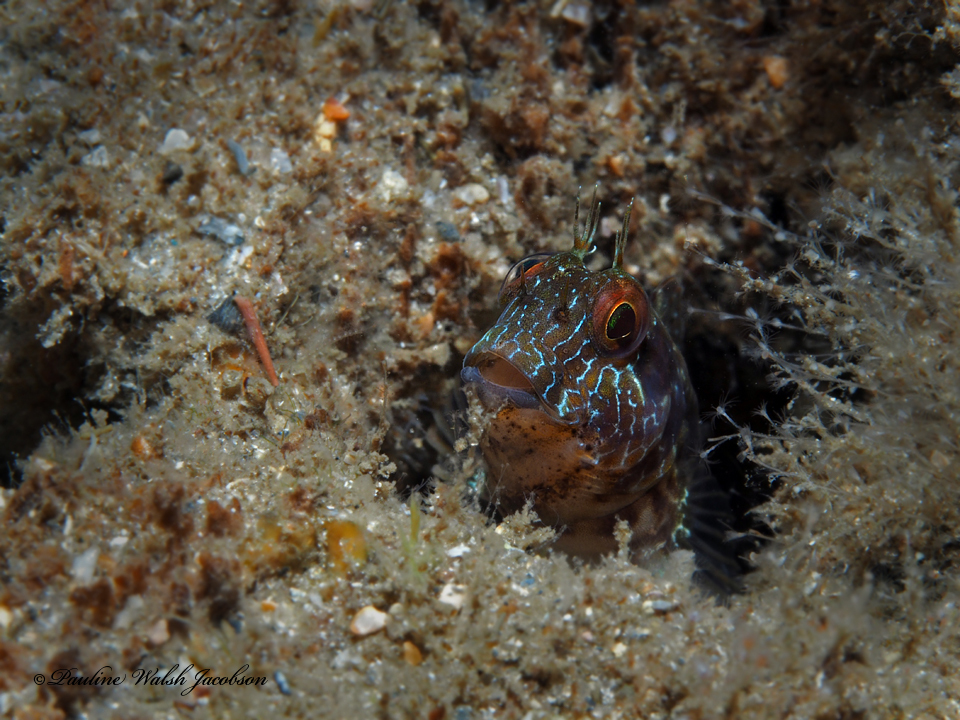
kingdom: Animalia
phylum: Chordata
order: Perciformes
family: Blenniidae
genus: Parablennius
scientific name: Parablennius marmoreus
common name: Seaweed blenny
